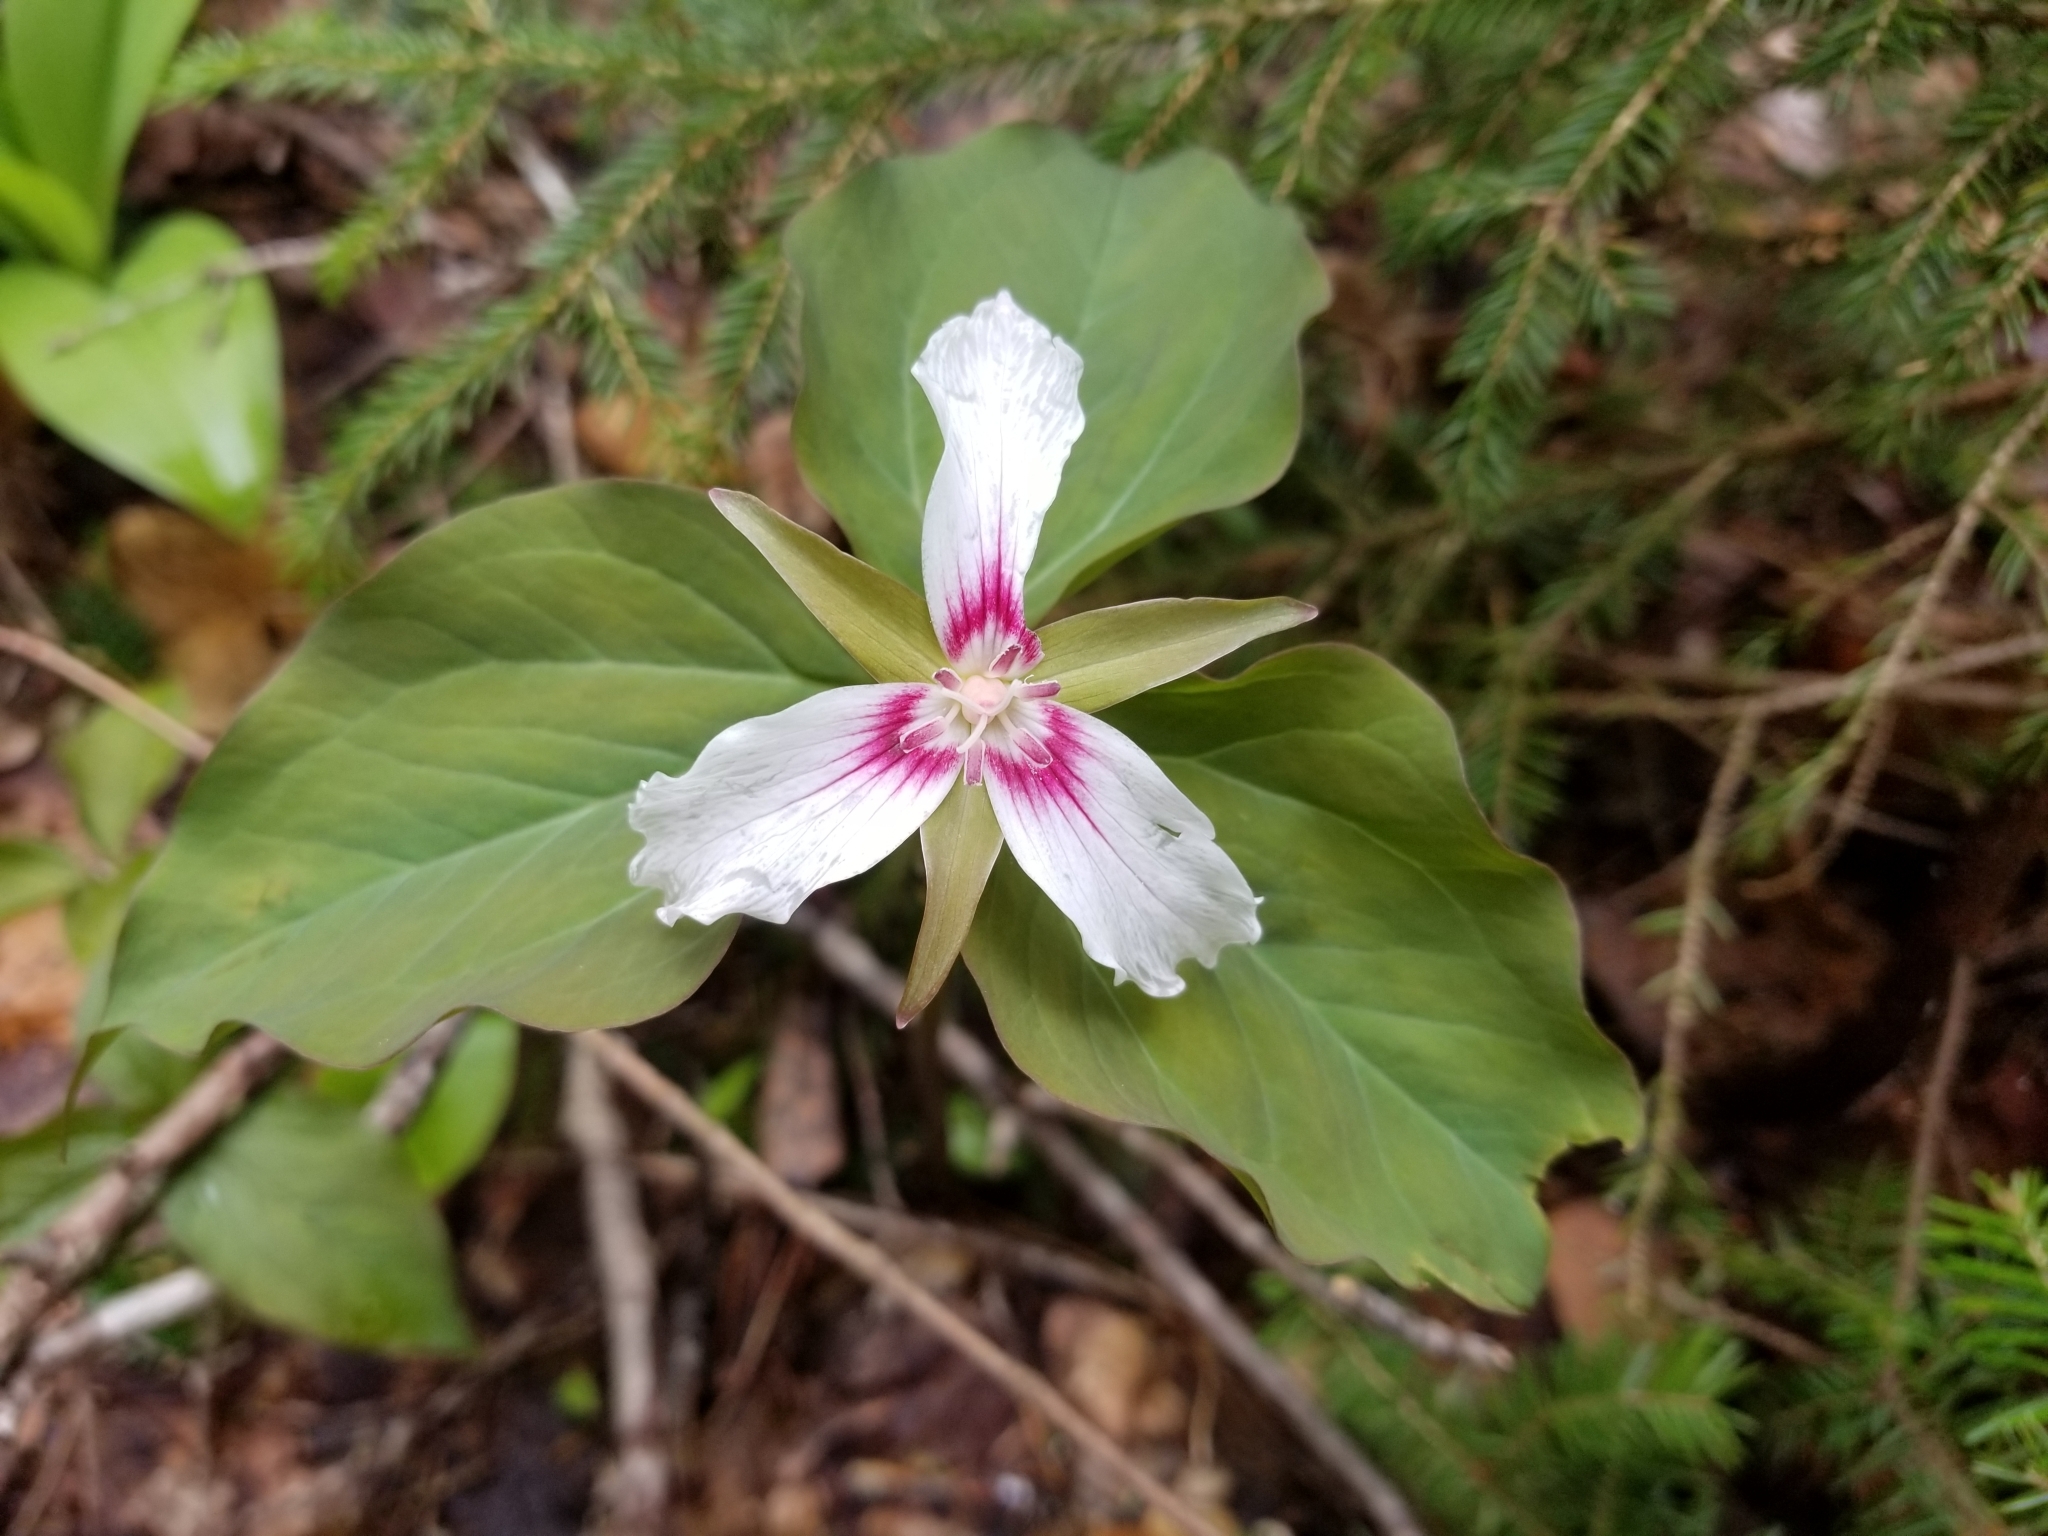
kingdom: Plantae
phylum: Tracheophyta
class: Liliopsida
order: Liliales
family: Melanthiaceae
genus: Trillium
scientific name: Trillium undulatum
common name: Paint trillium
